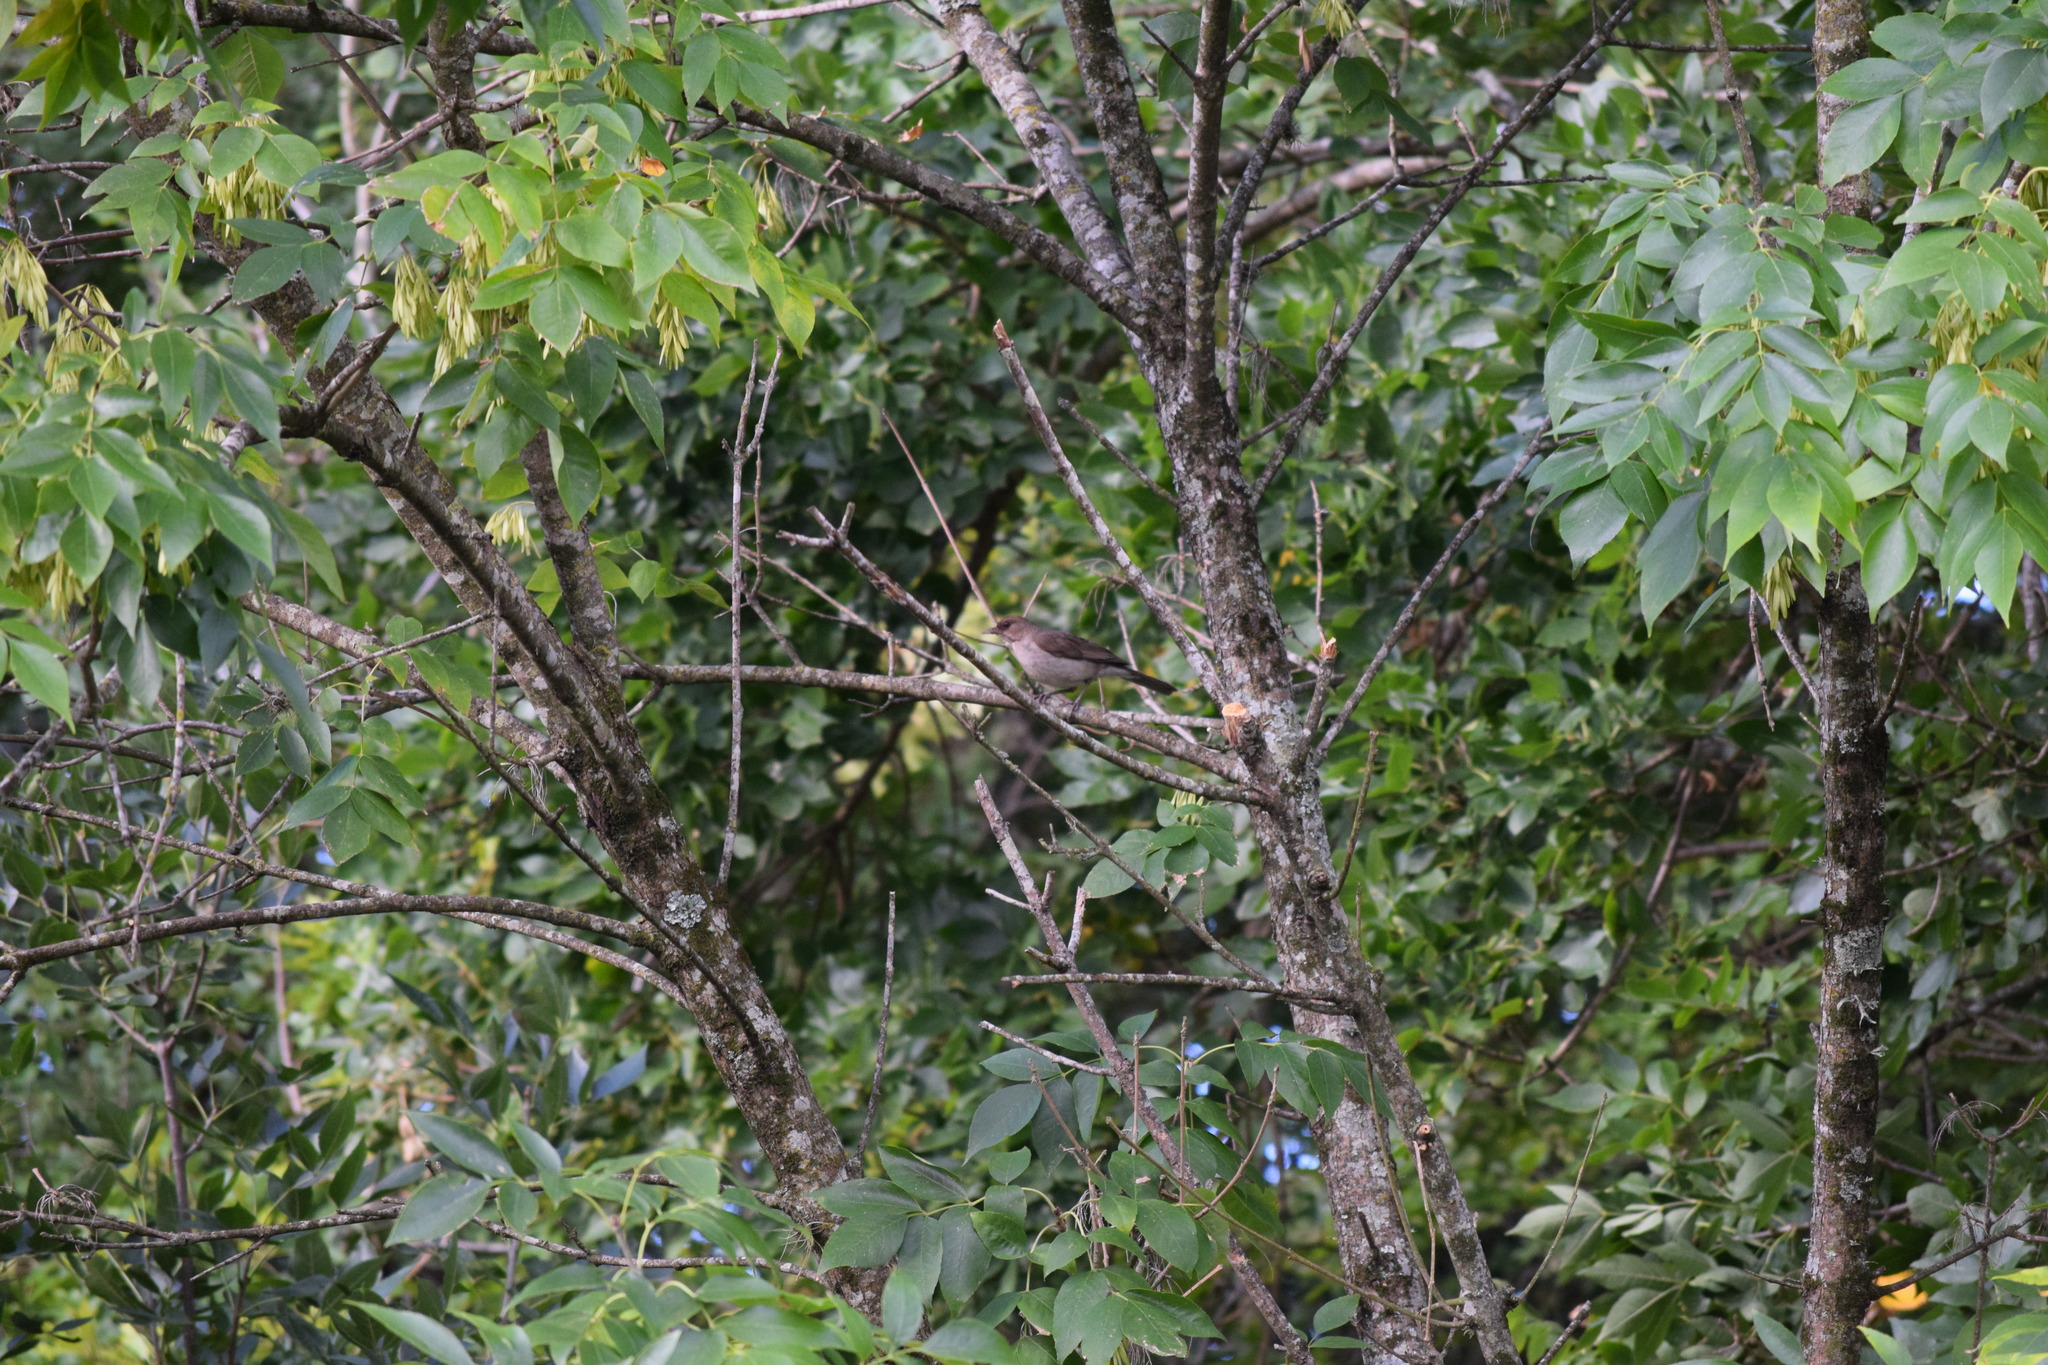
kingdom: Animalia
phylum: Chordata
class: Aves
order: Passeriformes
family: Turdidae
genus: Turdus
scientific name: Turdus amaurochalinus
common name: Creamy-bellied thrush
